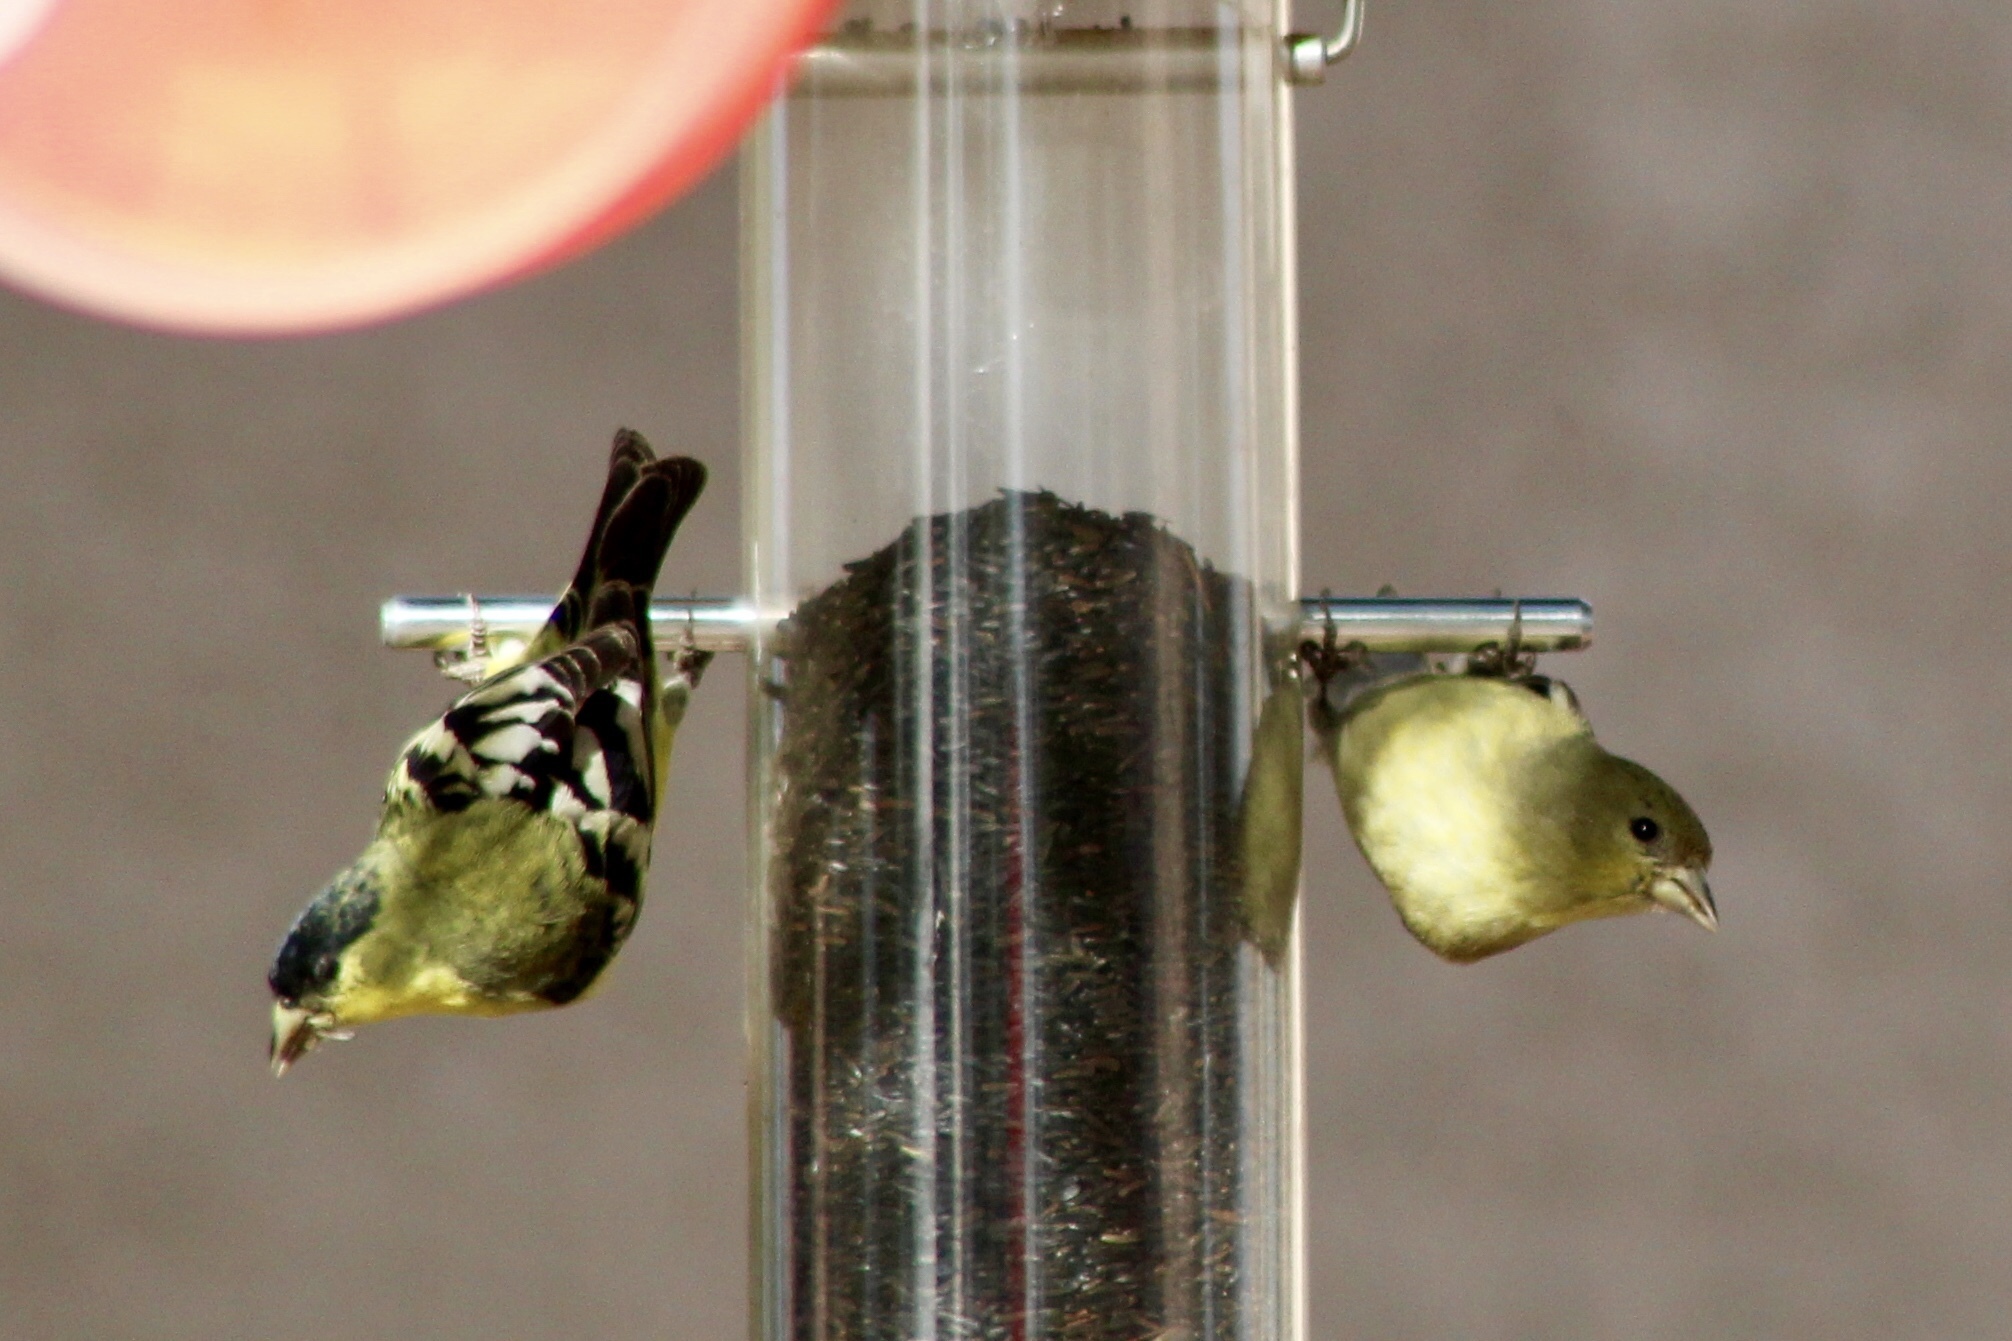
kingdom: Animalia
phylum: Chordata
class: Aves
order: Passeriformes
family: Fringillidae
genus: Spinus
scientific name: Spinus psaltria
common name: Lesser goldfinch
